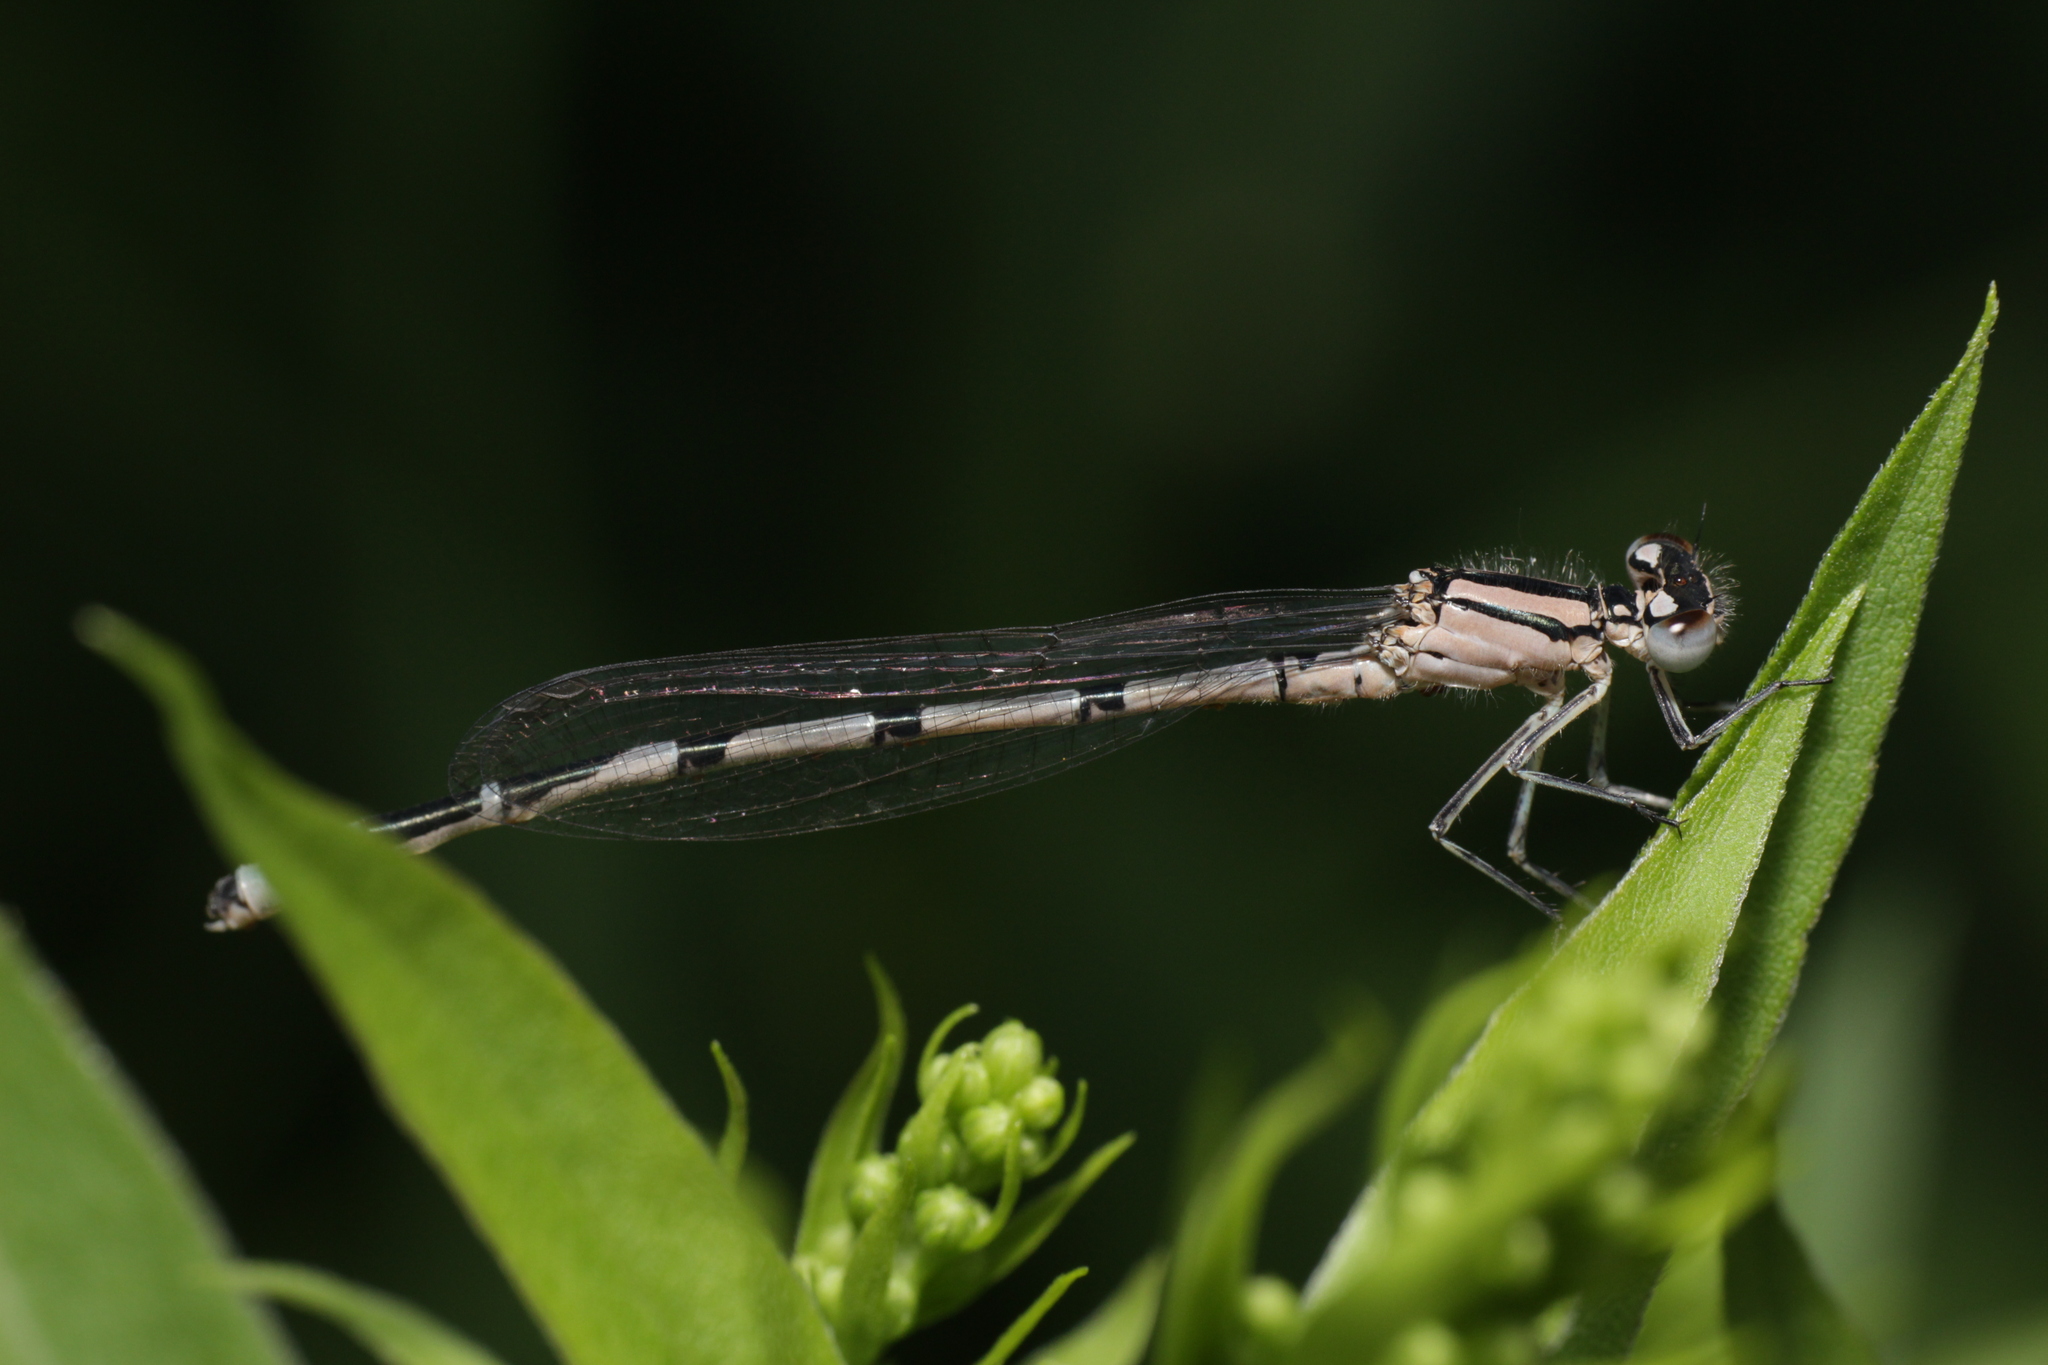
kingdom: Animalia
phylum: Arthropoda
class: Insecta
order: Odonata
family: Coenagrionidae
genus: Enallagma
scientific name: Enallagma cyathigerum
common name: Common blue damselfly
